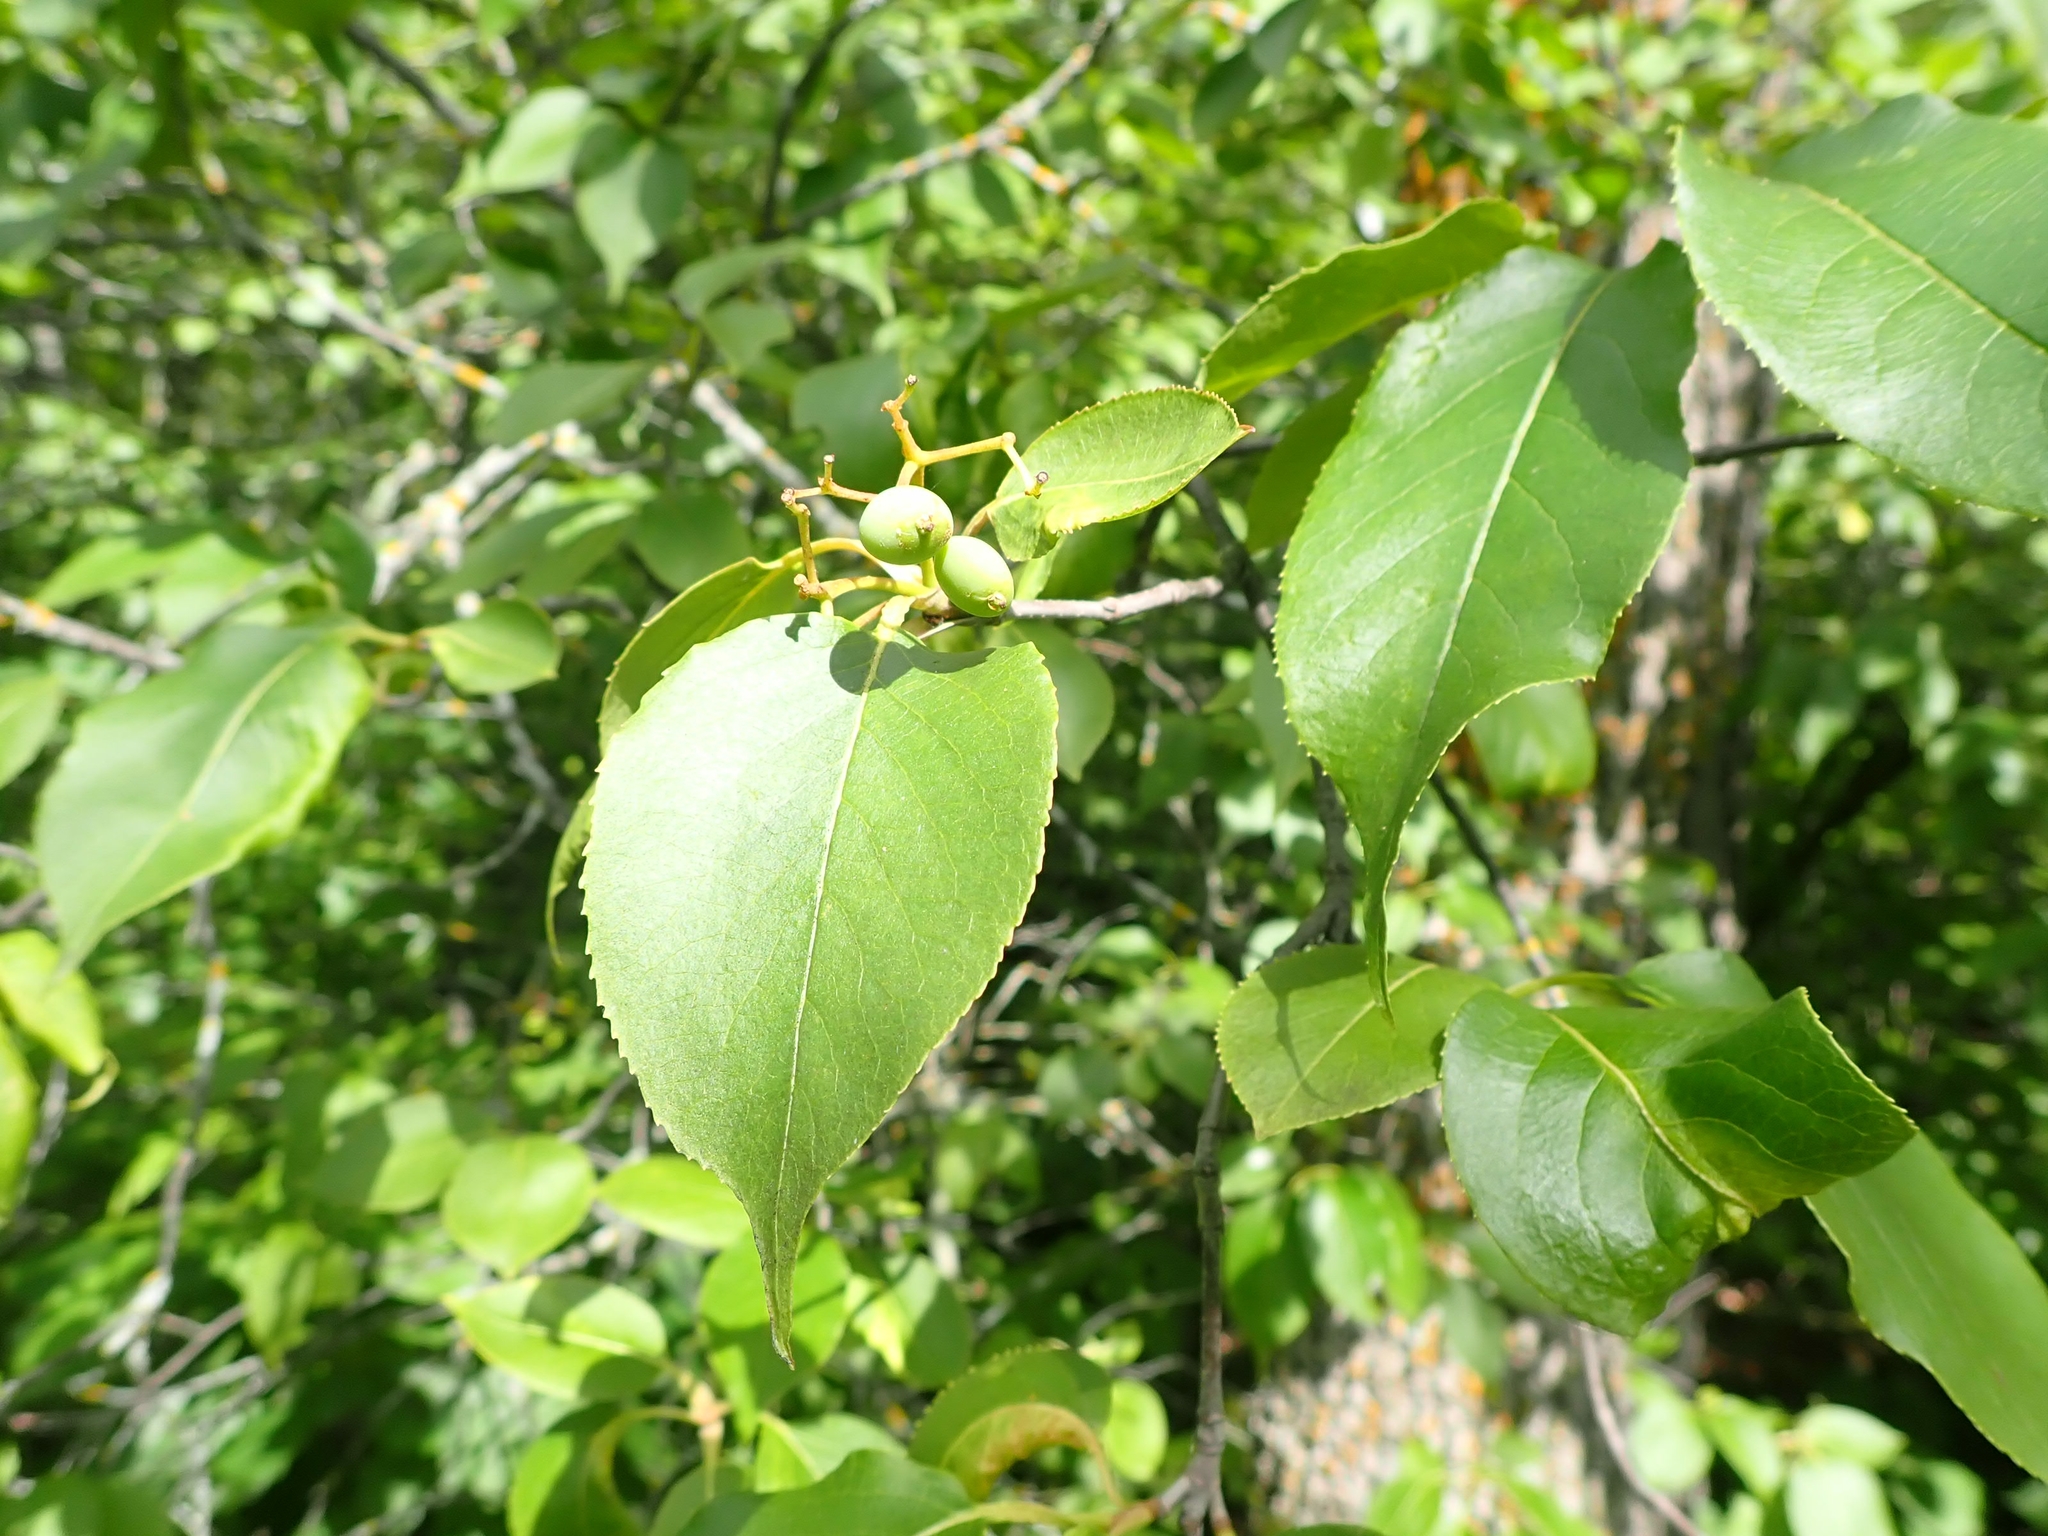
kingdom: Plantae
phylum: Tracheophyta
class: Magnoliopsida
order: Dipsacales
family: Viburnaceae
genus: Viburnum
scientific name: Viburnum lentago
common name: Black haw
